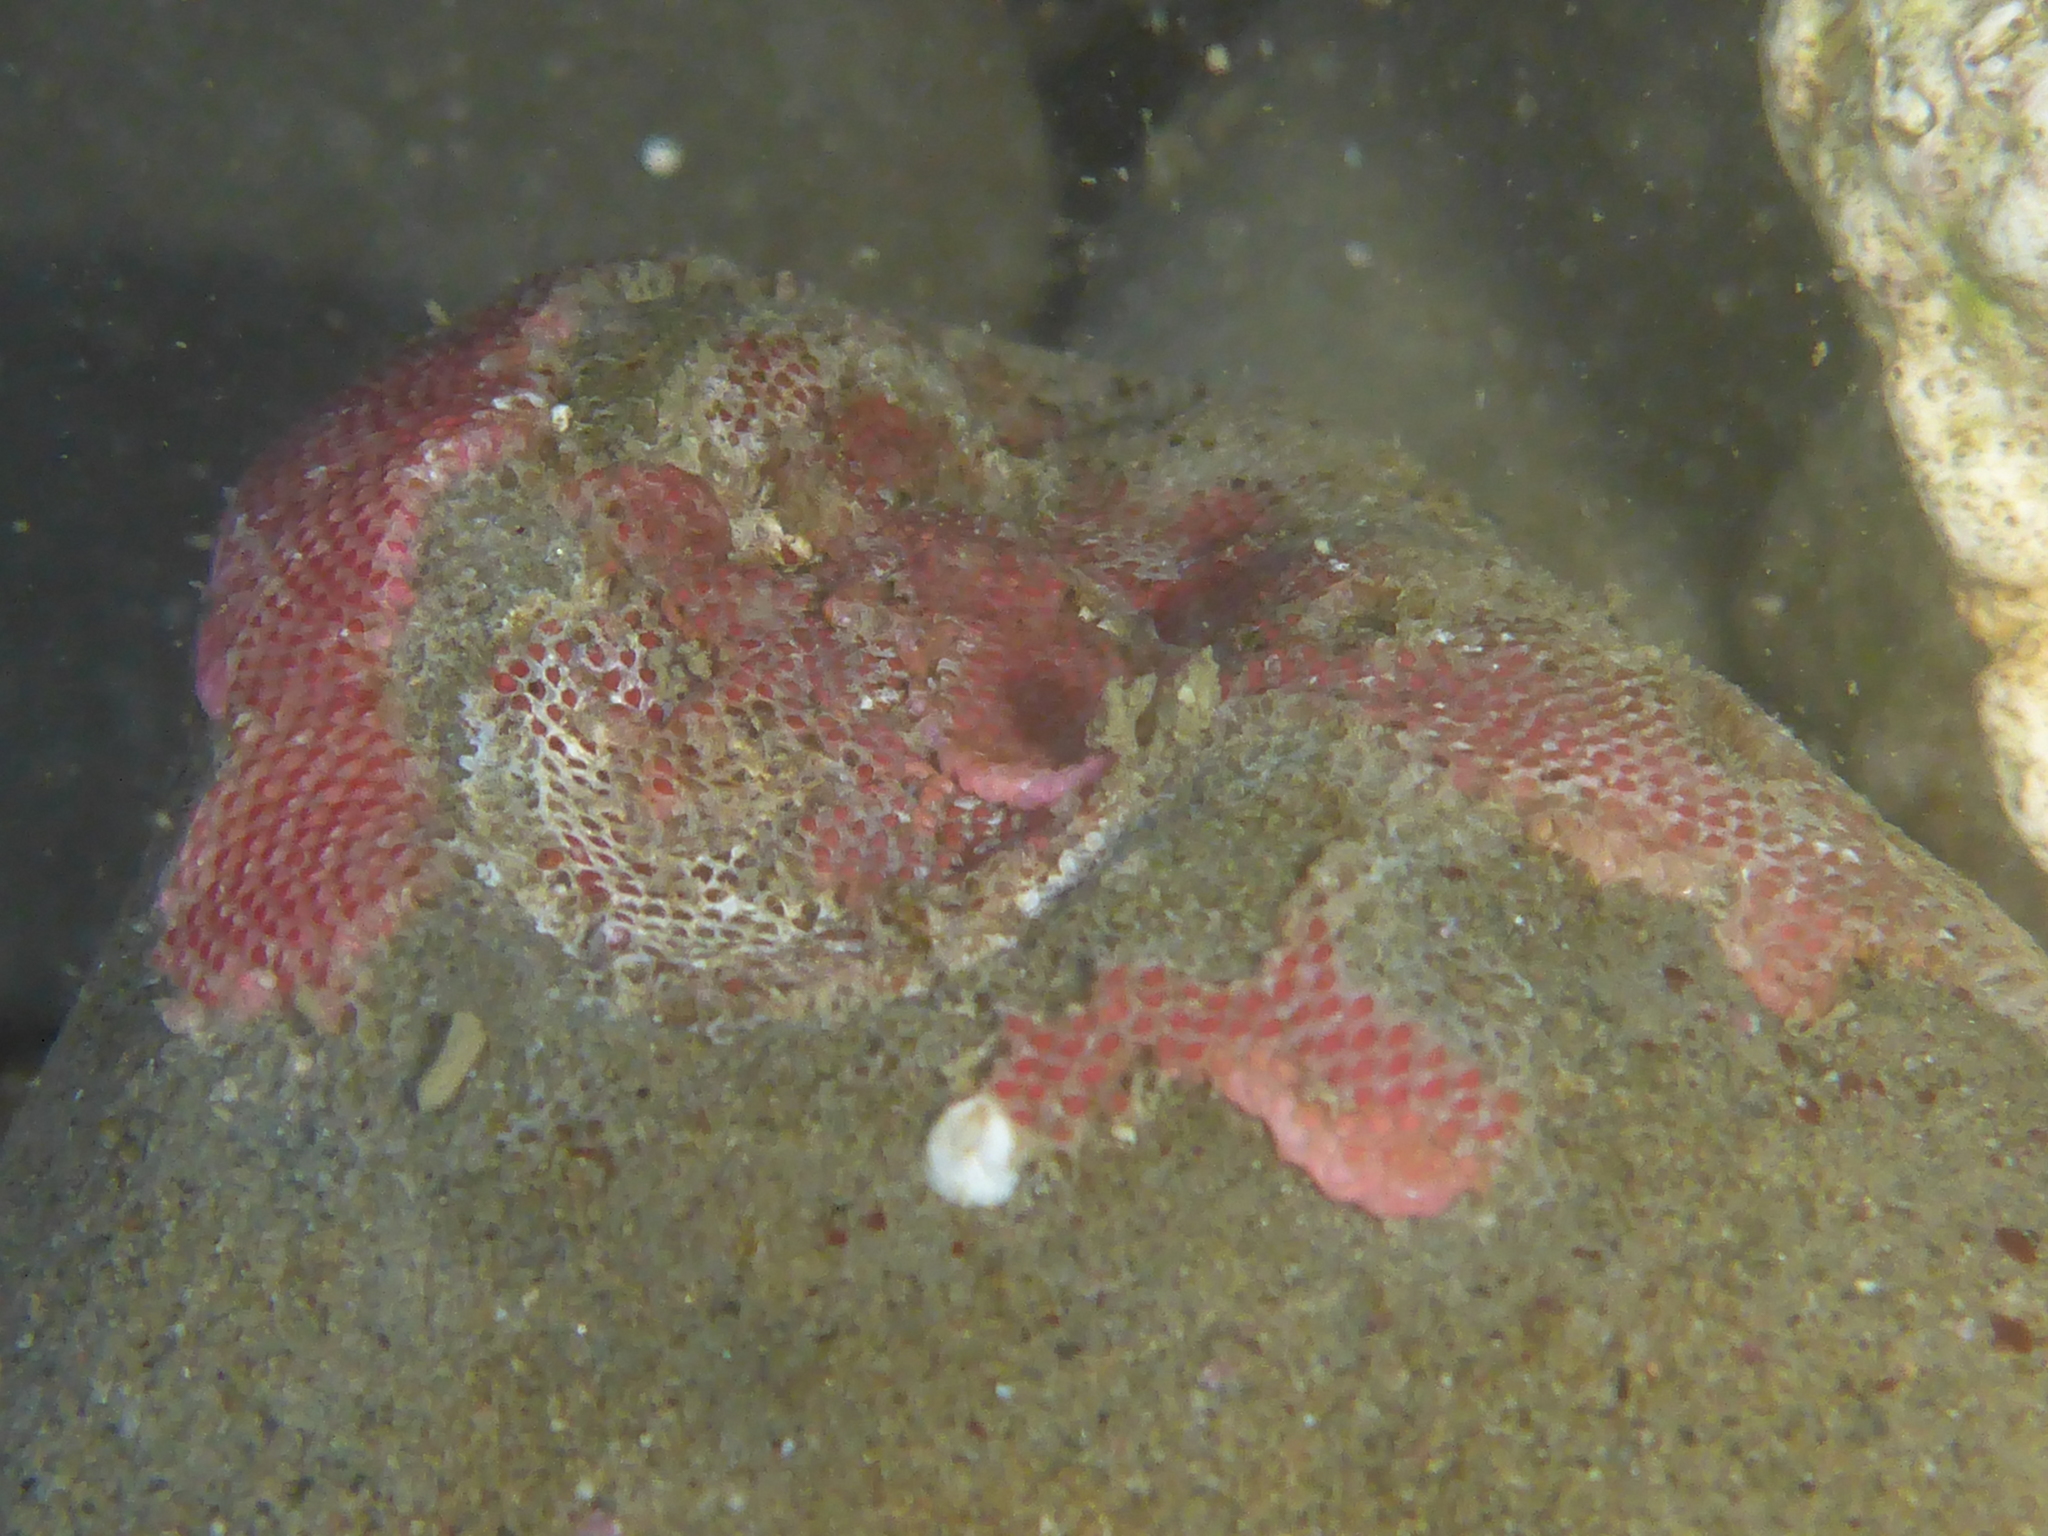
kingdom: Animalia
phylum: Bryozoa
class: Gymnolaemata
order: Cheilostomatida
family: Eurystomellidae
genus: Integripelta
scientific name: Integripelta bilabiata
